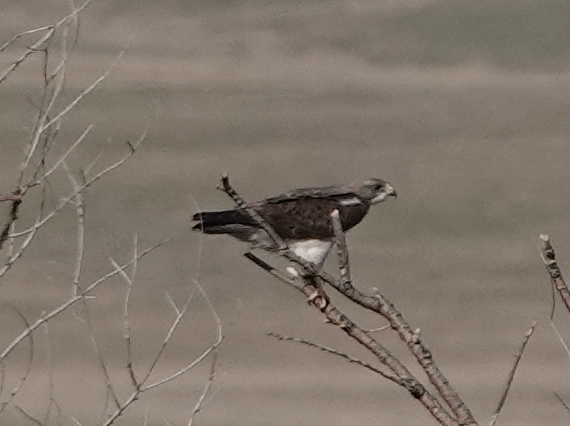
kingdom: Animalia
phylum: Chordata
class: Aves
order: Accipitriformes
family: Accipitridae
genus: Buteo
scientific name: Buteo swainsoni
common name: Swainson's hawk
